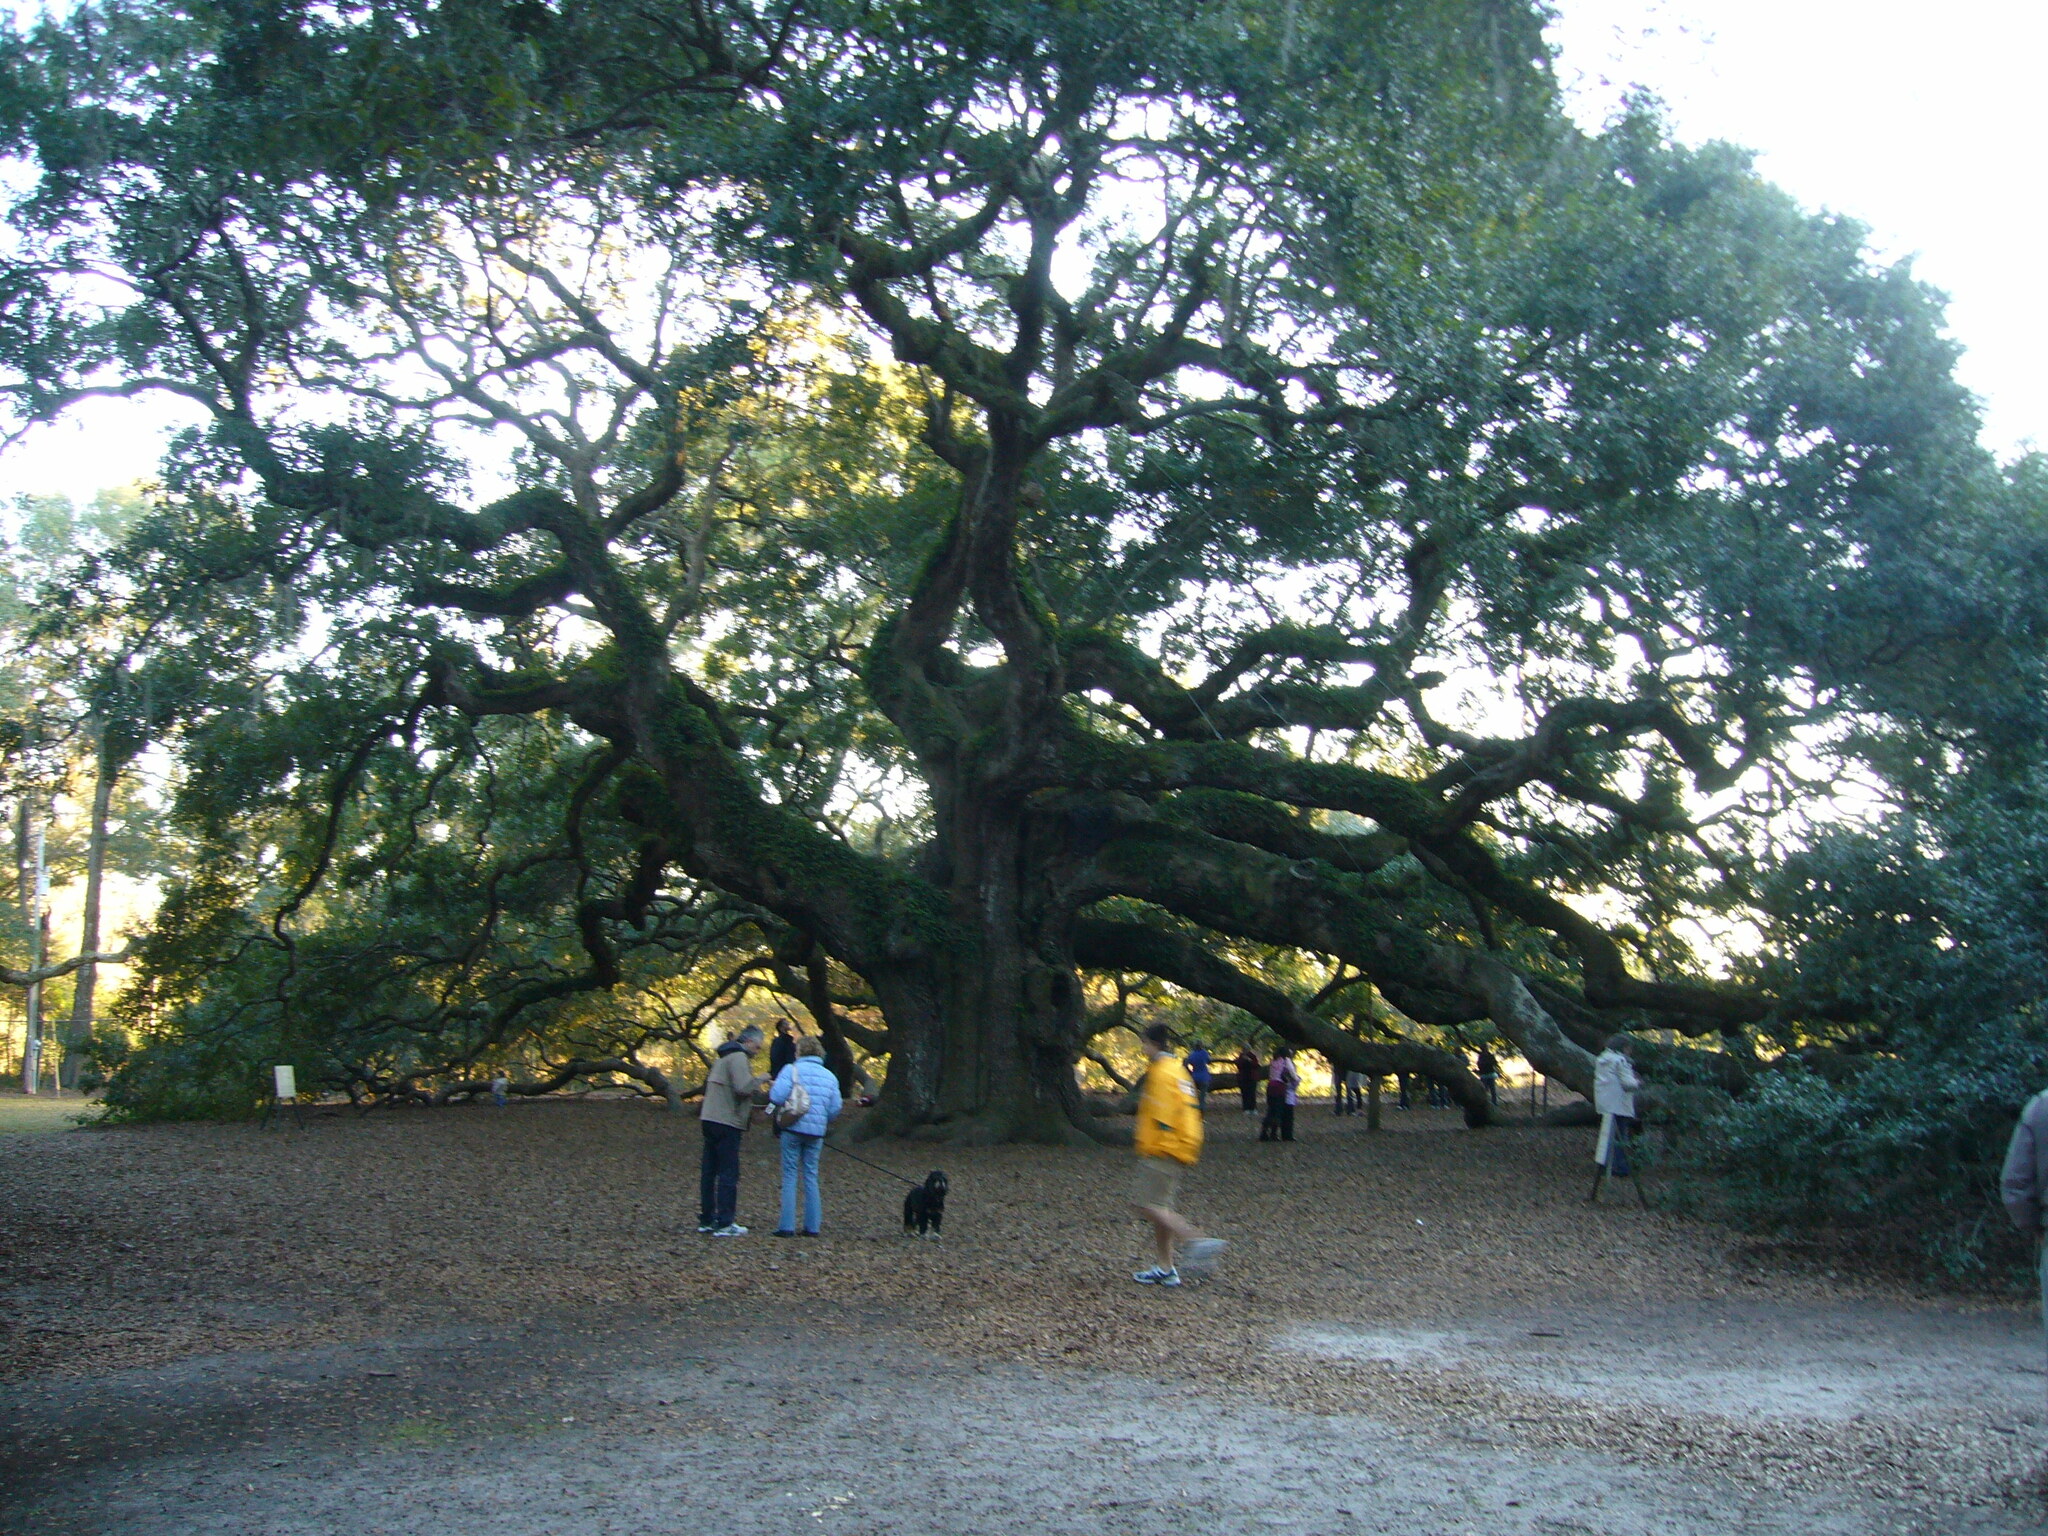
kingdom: Plantae
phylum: Tracheophyta
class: Magnoliopsida
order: Fagales
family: Fagaceae
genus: Quercus
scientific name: Quercus virginiana
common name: Southern live oak
